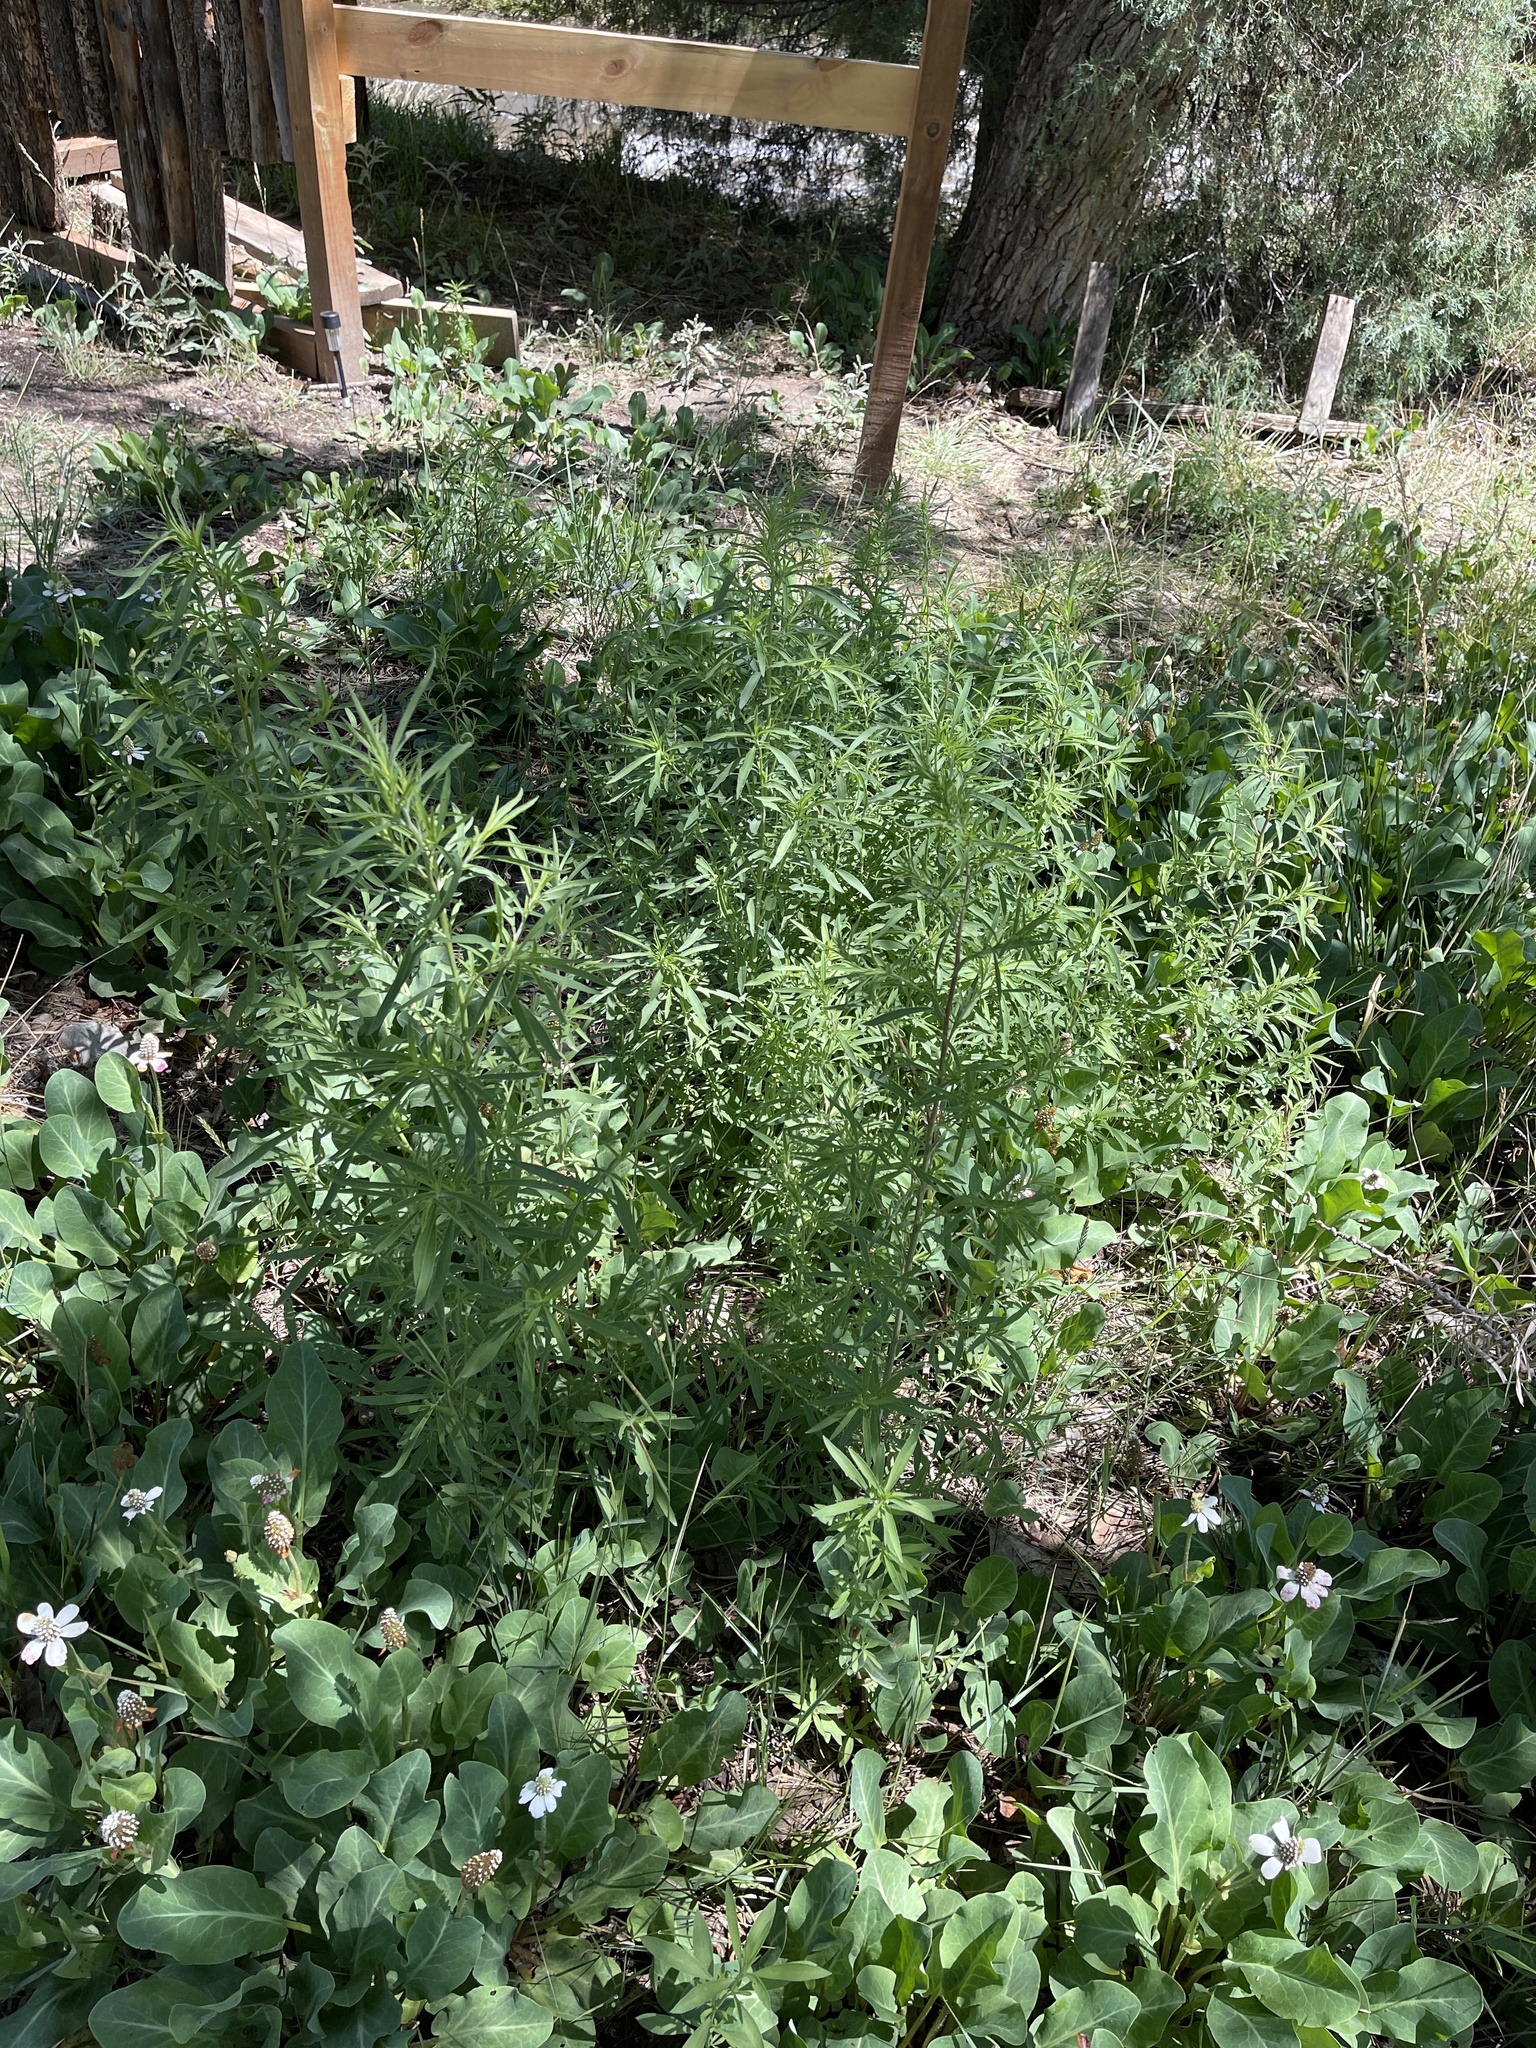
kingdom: Plantae
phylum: Tracheophyta
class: Magnoliopsida
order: Caryophyllales
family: Amaranthaceae
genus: Bassia
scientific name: Bassia scoparia
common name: Belvedere
